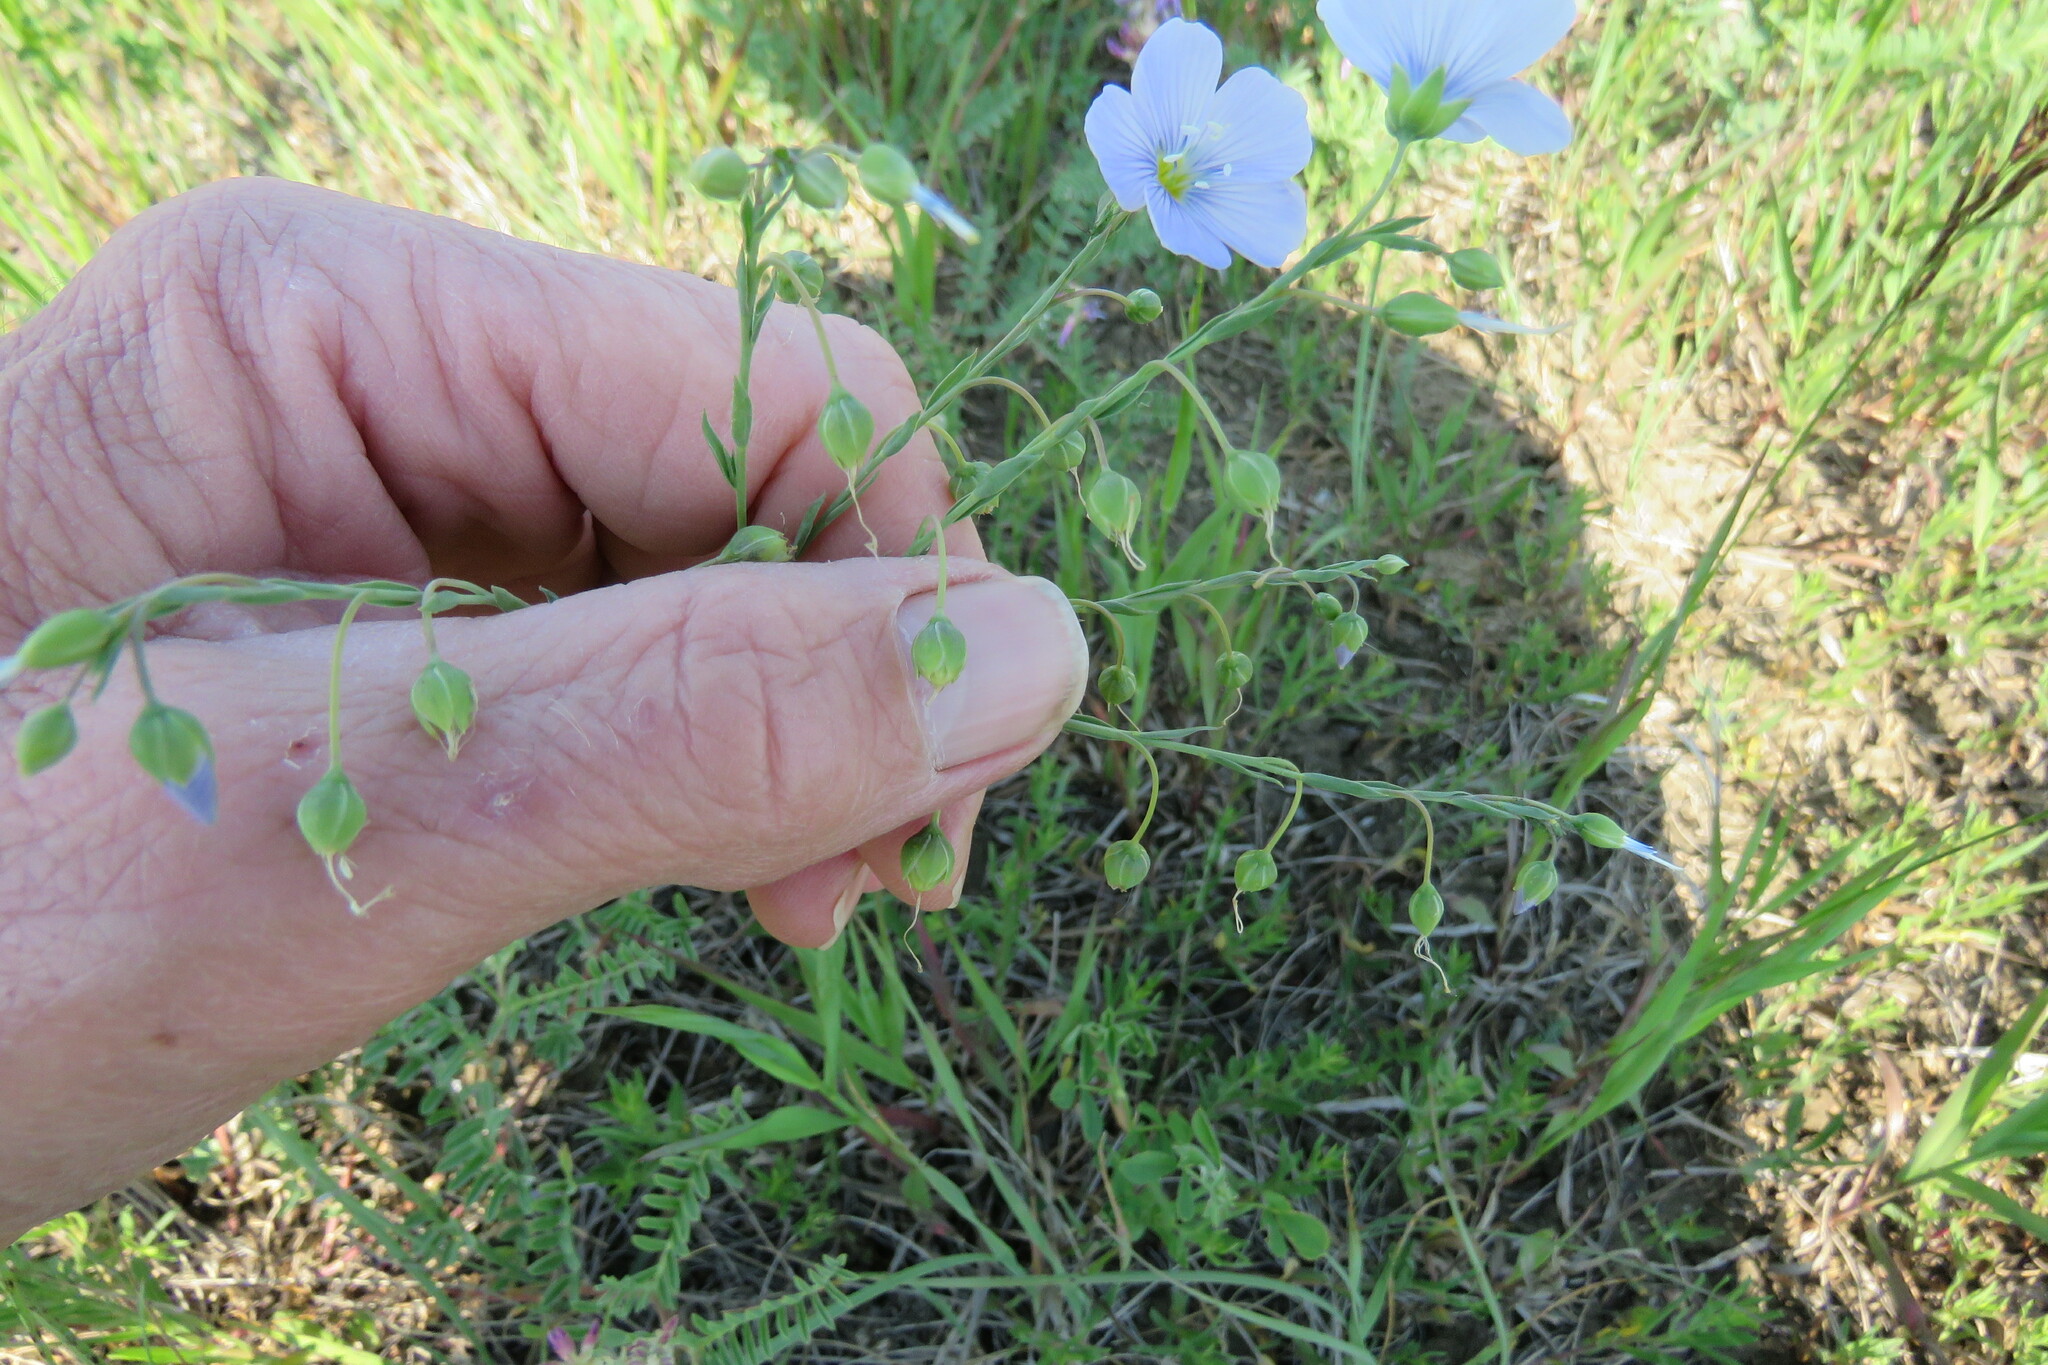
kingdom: Plantae
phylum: Tracheophyta
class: Magnoliopsida
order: Malpighiales
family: Linaceae
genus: Linum
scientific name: Linum lewisii
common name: Prairie flax
